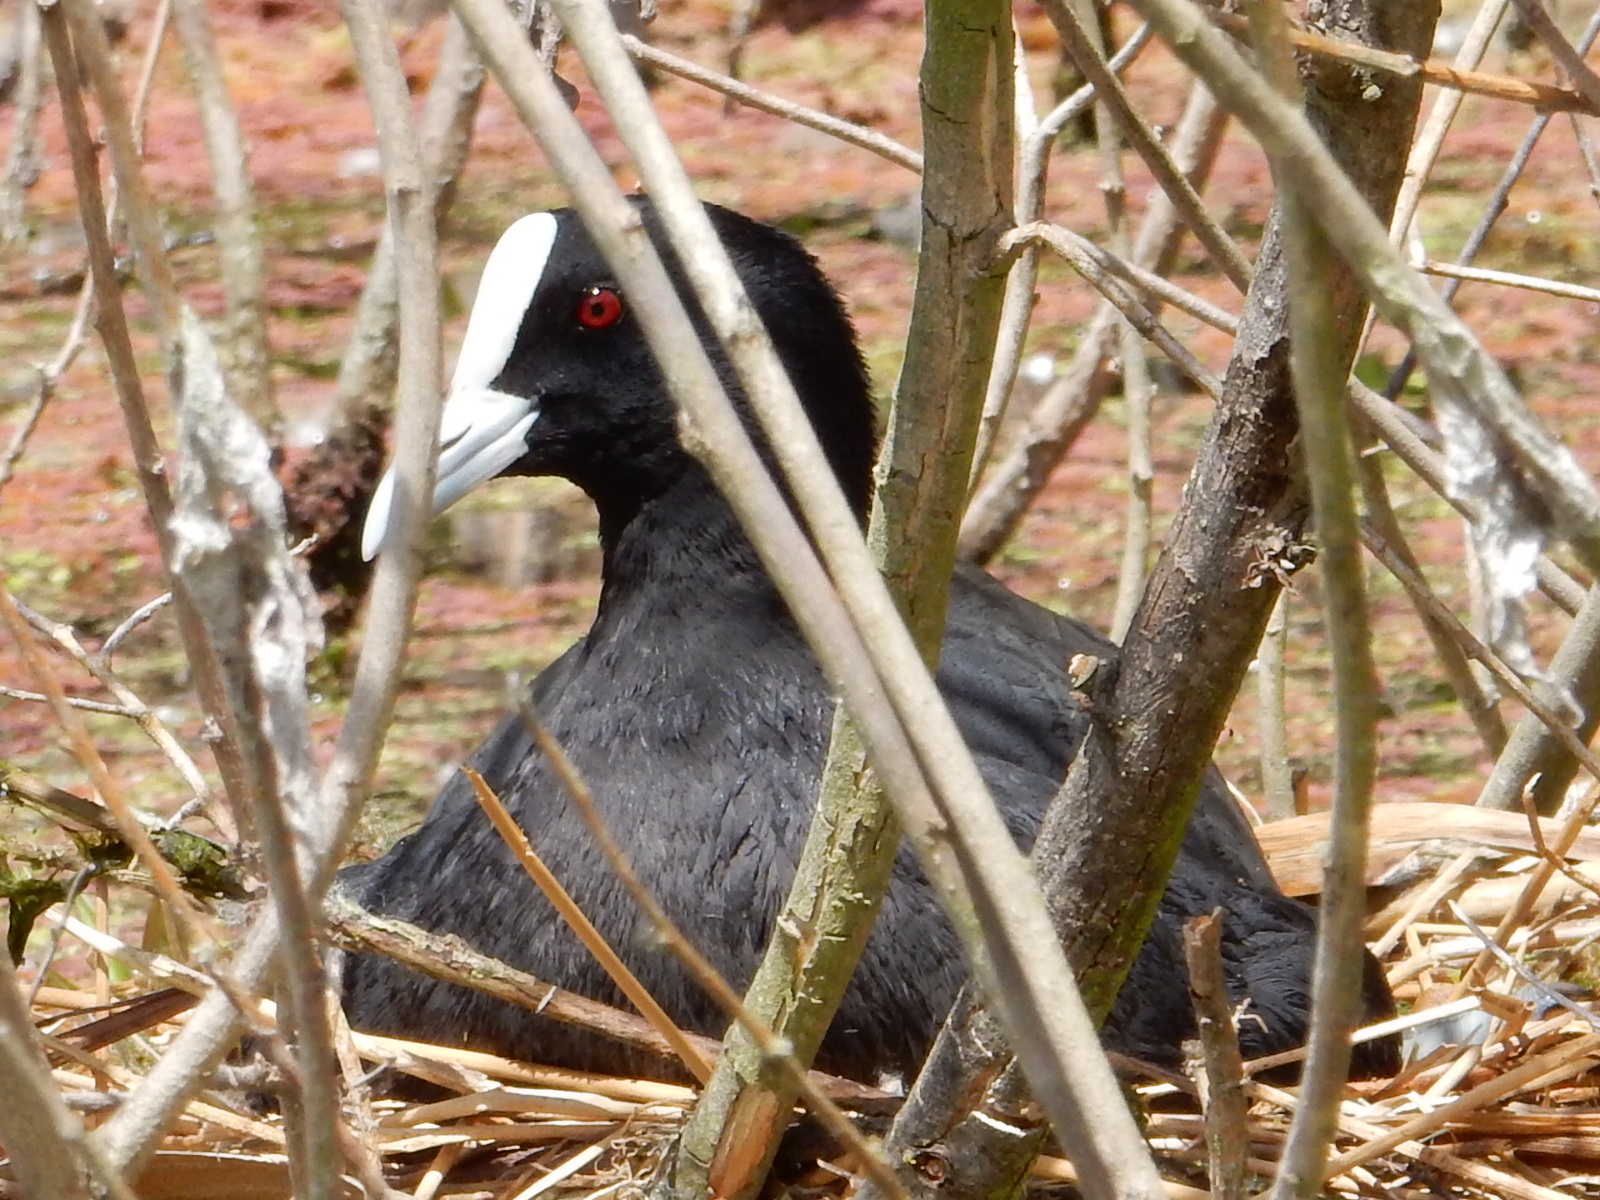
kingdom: Animalia
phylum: Chordata
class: Aves
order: Gruiformes
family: Rallidae
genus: Fulica
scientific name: Fulica atra
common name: Eurasian coot
